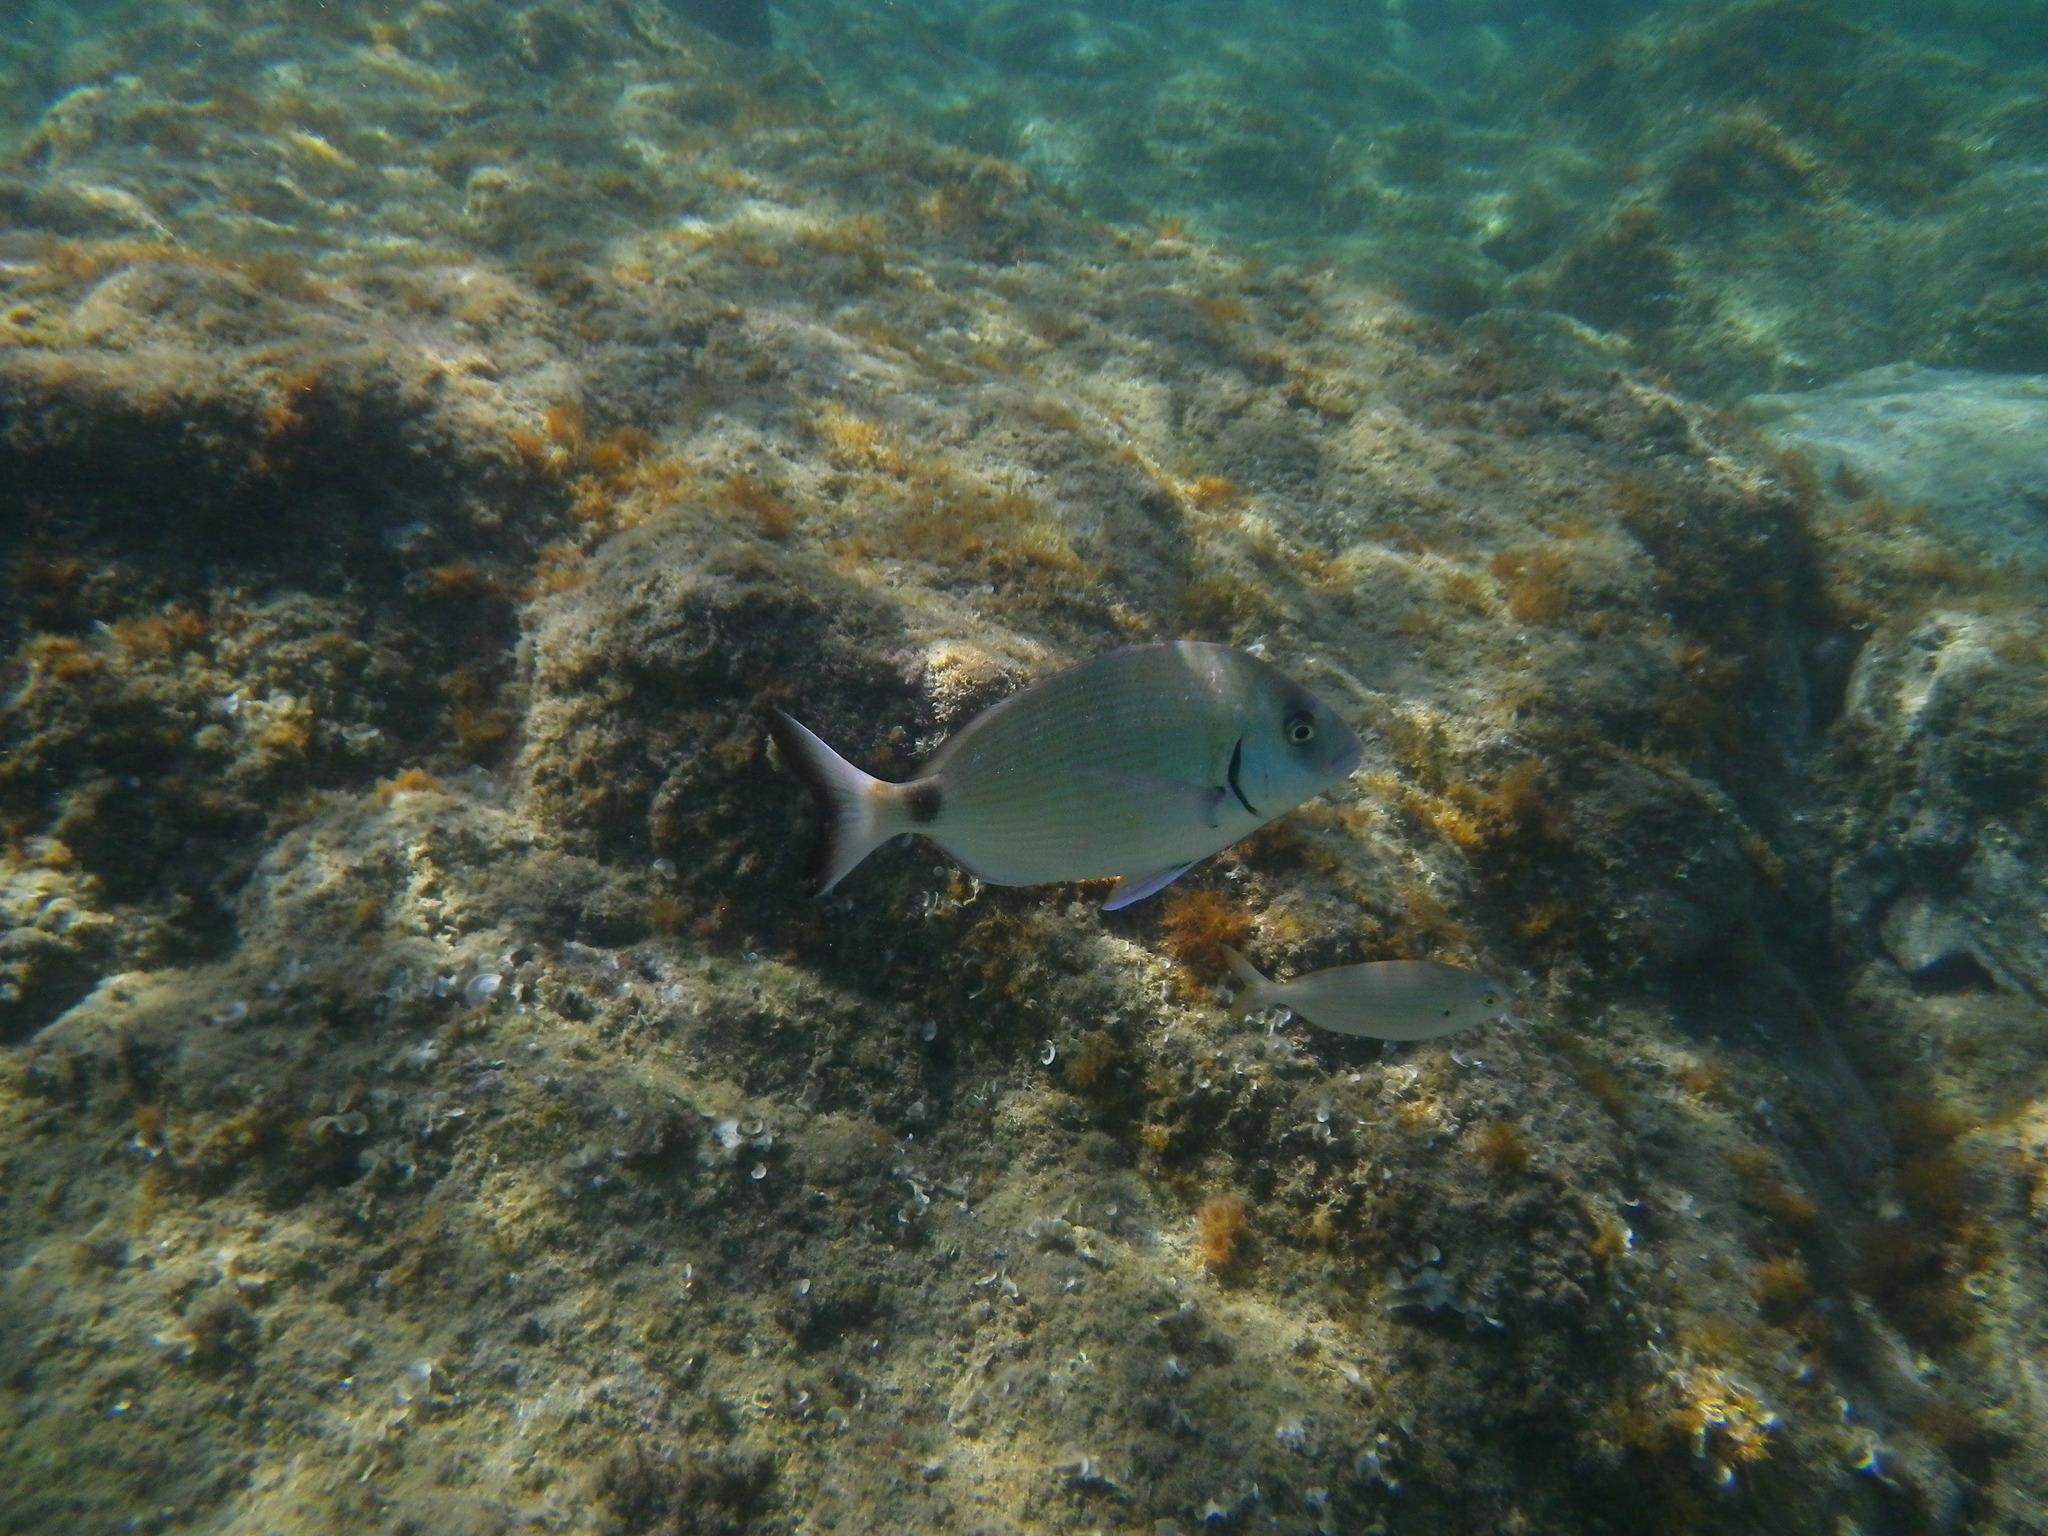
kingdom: Animalia
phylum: Chordata
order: Perciformes
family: Sparidae
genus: Diplodus
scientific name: Diplodus sargus
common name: White seabream
